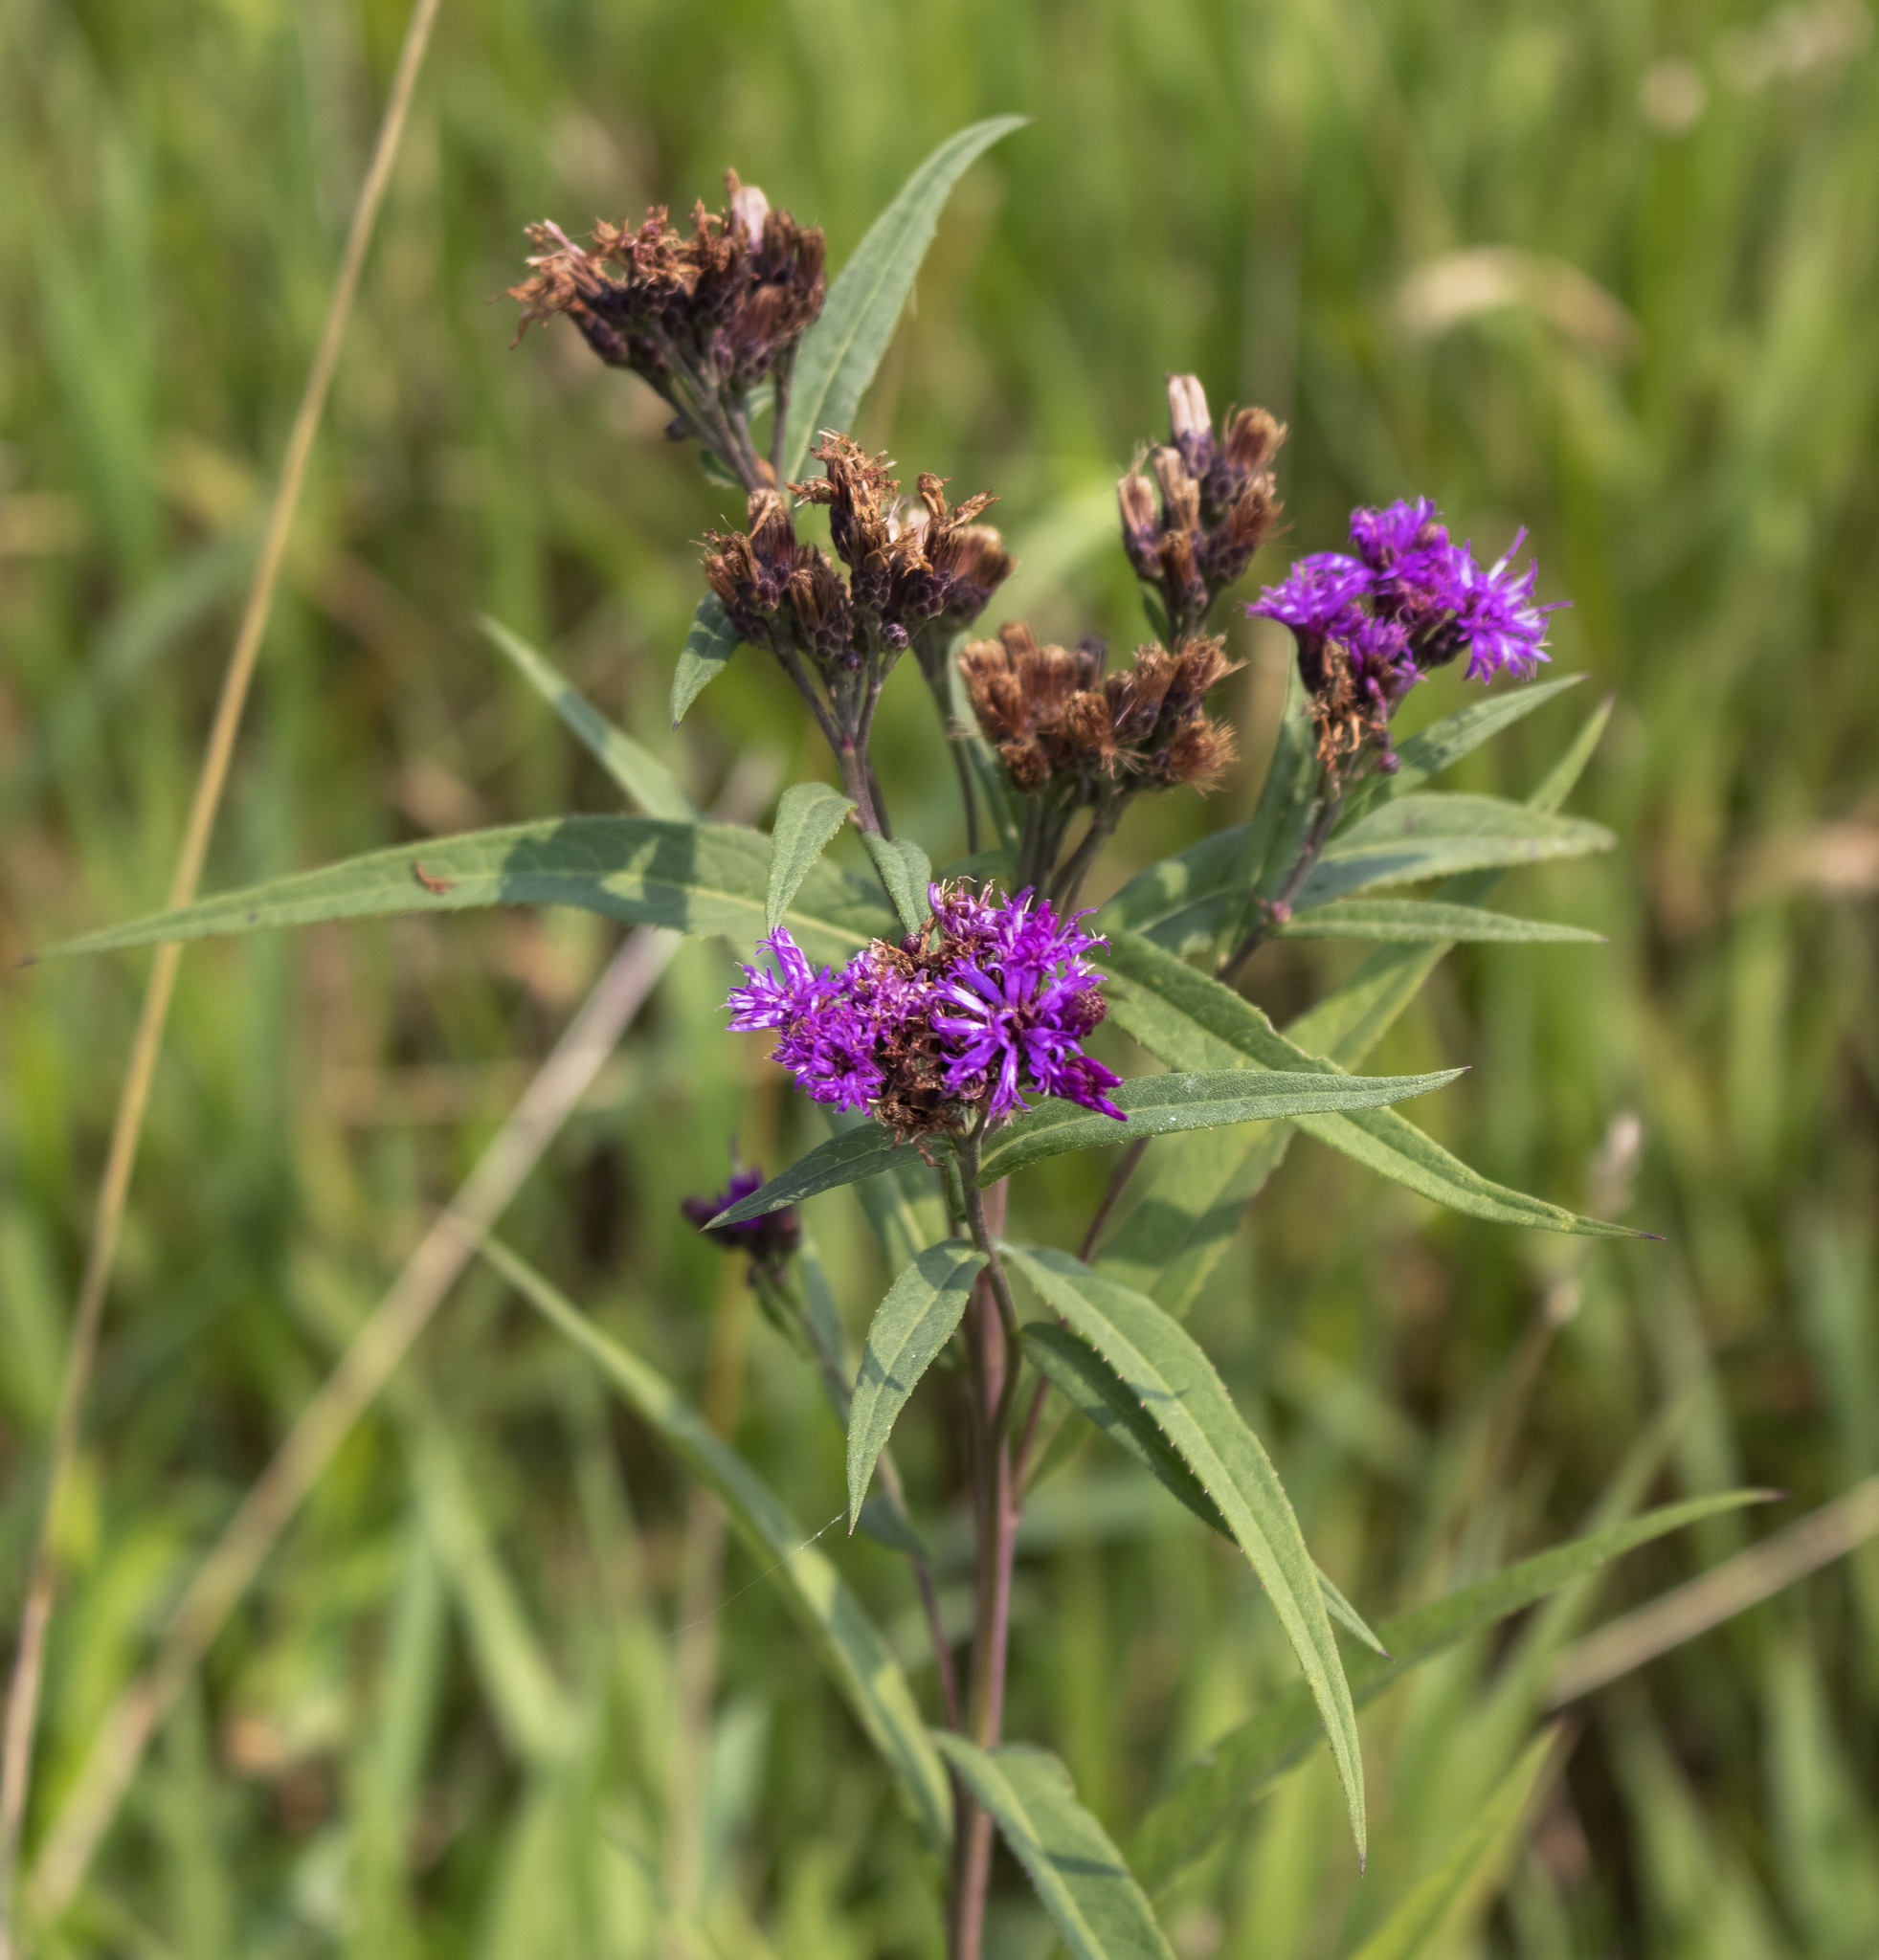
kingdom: Plantae
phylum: Tracheophyta
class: Magnoliopsida
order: Asterales
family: Asteraceae
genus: Vernonia
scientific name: Vernonia fasciculata
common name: Fascicled ironweed
